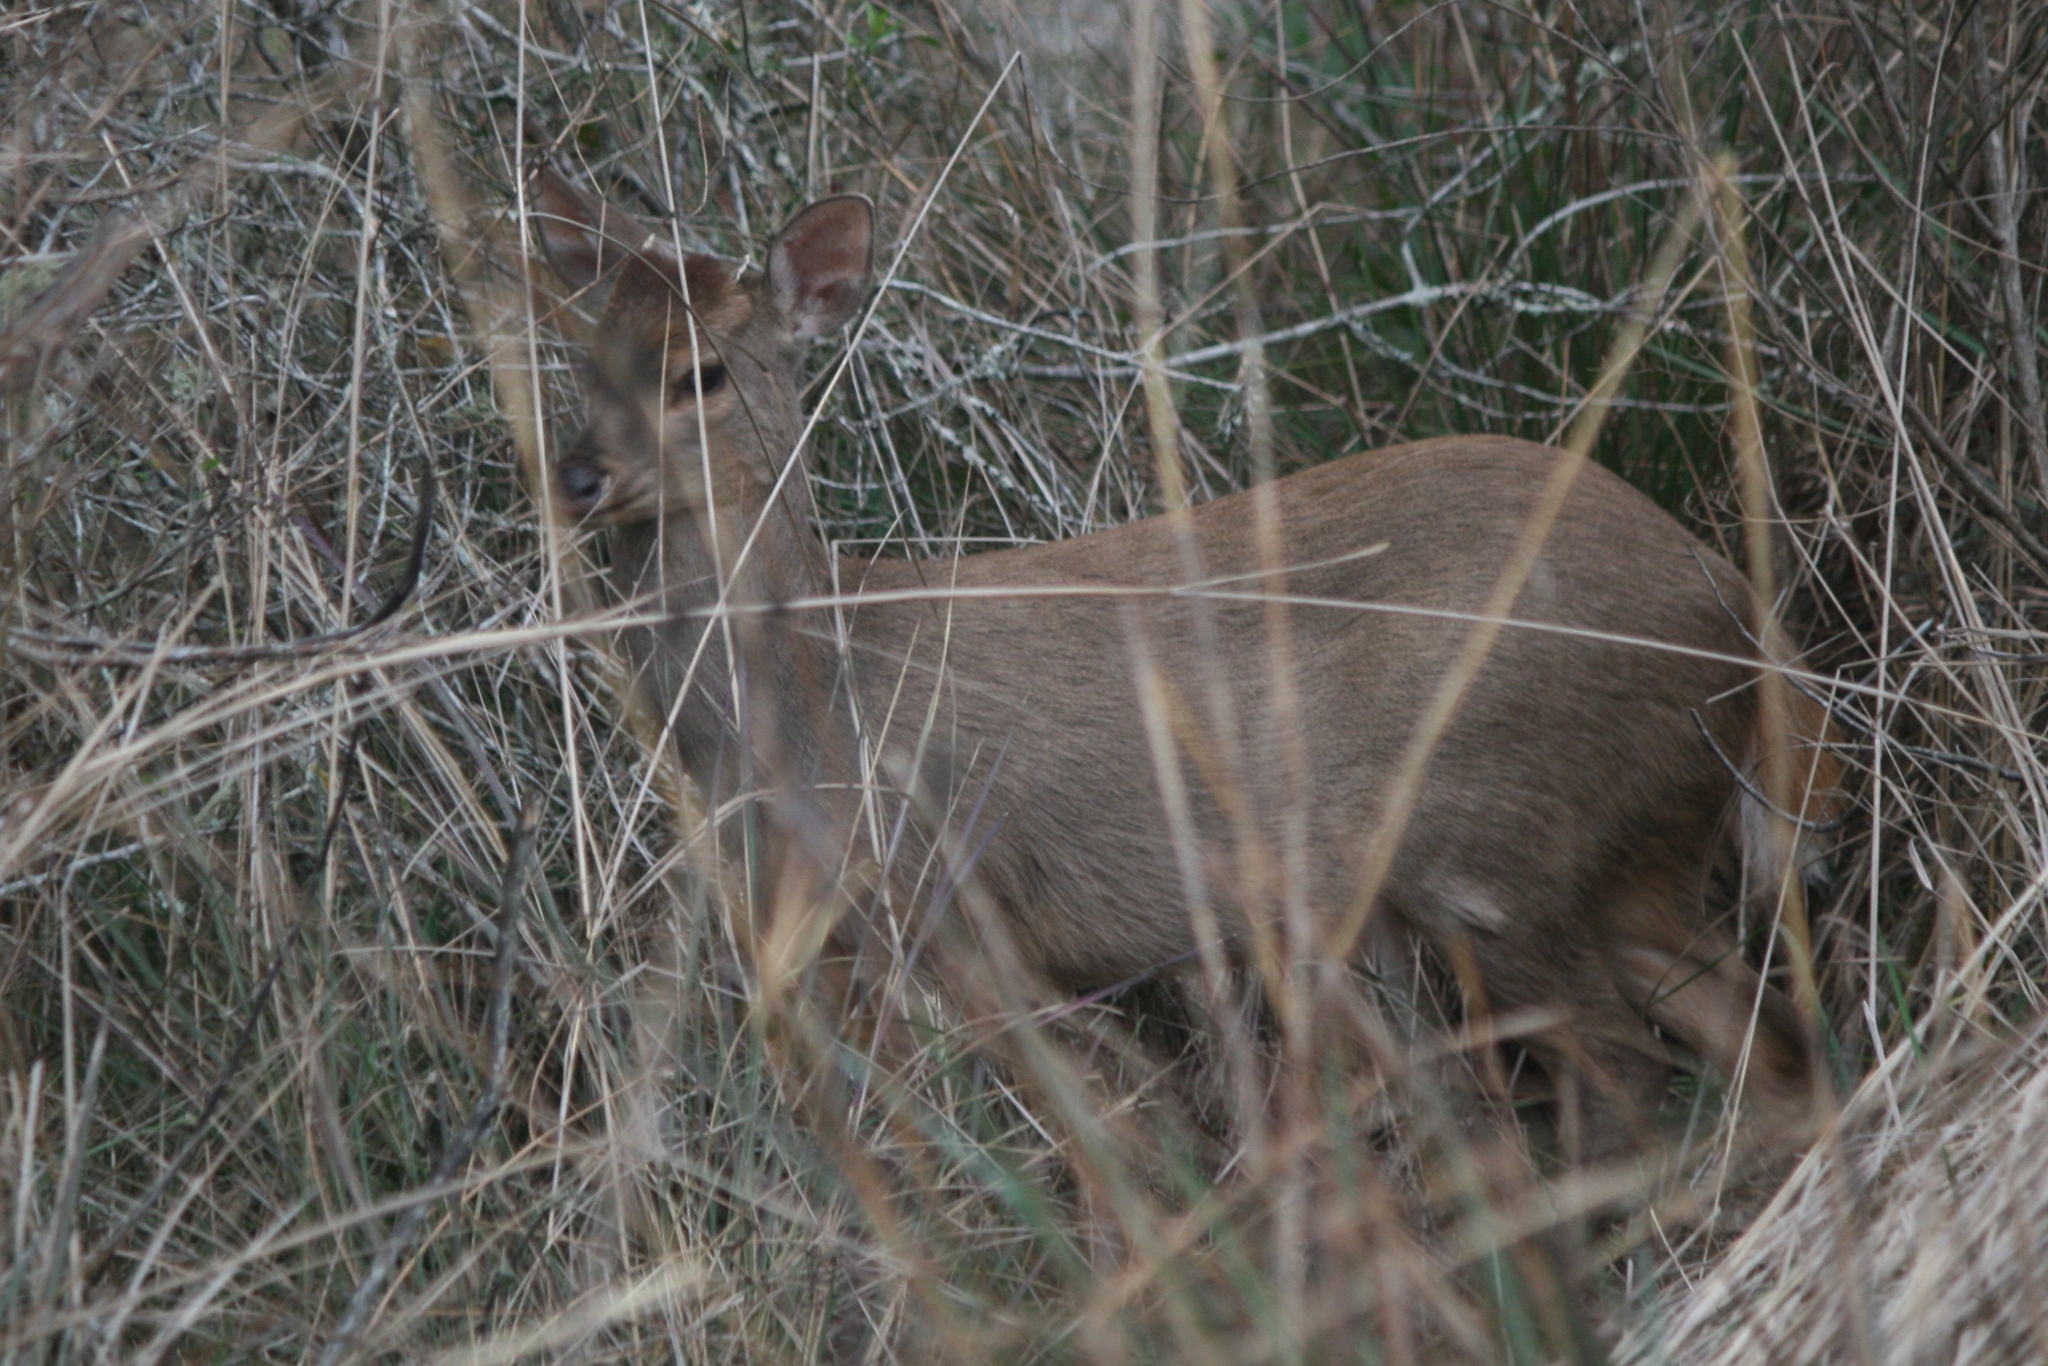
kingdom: Animalia
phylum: Chordata
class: Mammalia
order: Artiodactyla
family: Cervidae
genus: Mazama
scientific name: Mazama gouazoubira
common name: Gray brocket
